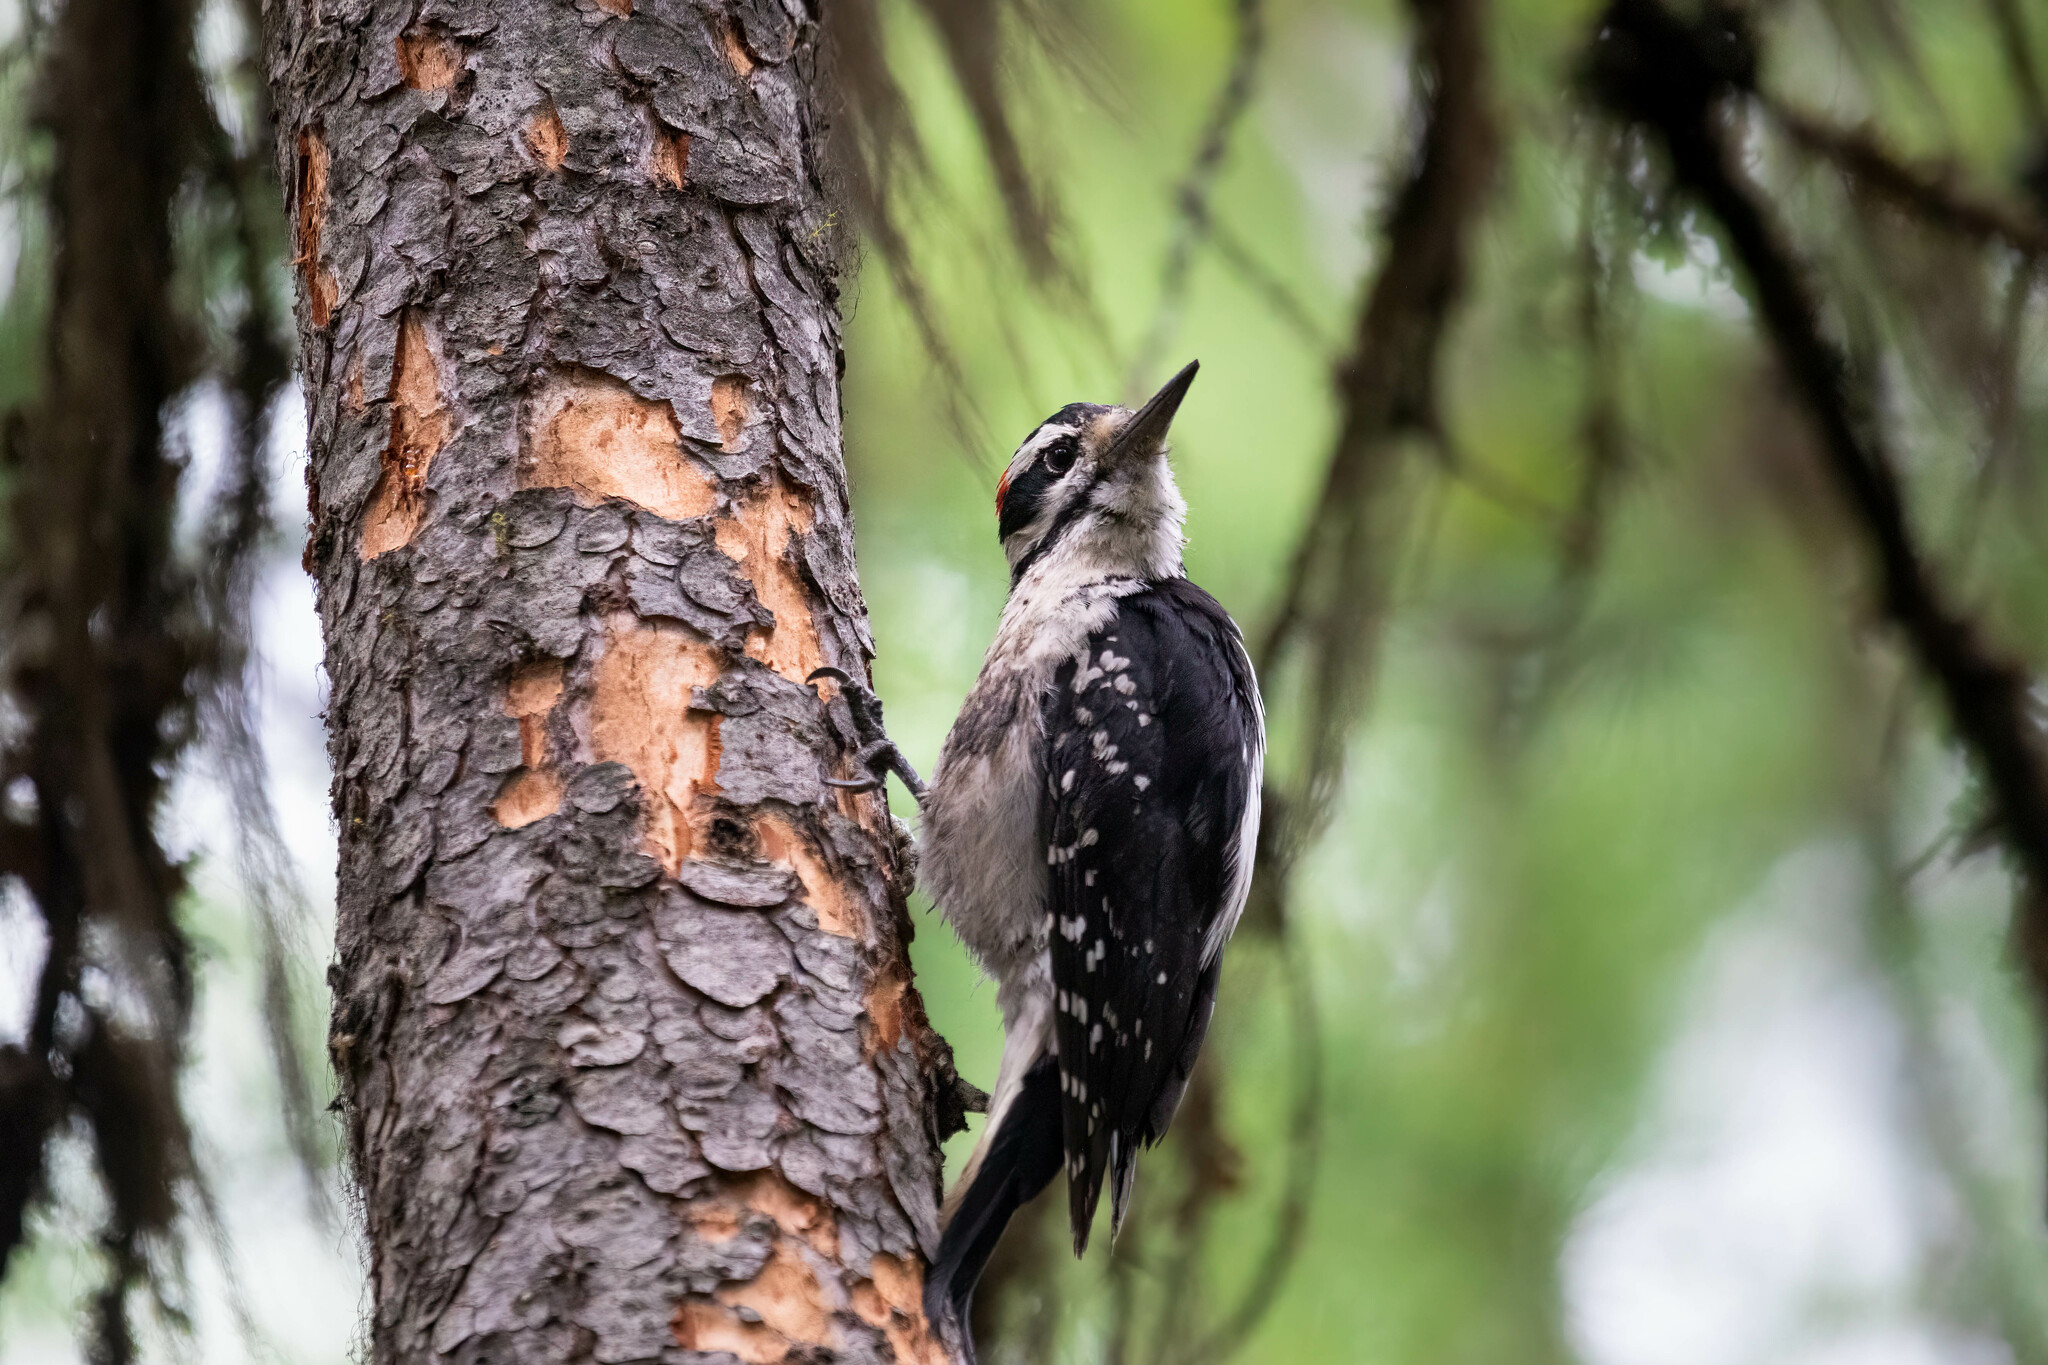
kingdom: Animalia
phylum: Chordata
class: Aves
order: Piciformes
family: Picidae
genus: Leuconotopicus
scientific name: Leuconotopicus villosus
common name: Hairy woodpecker
